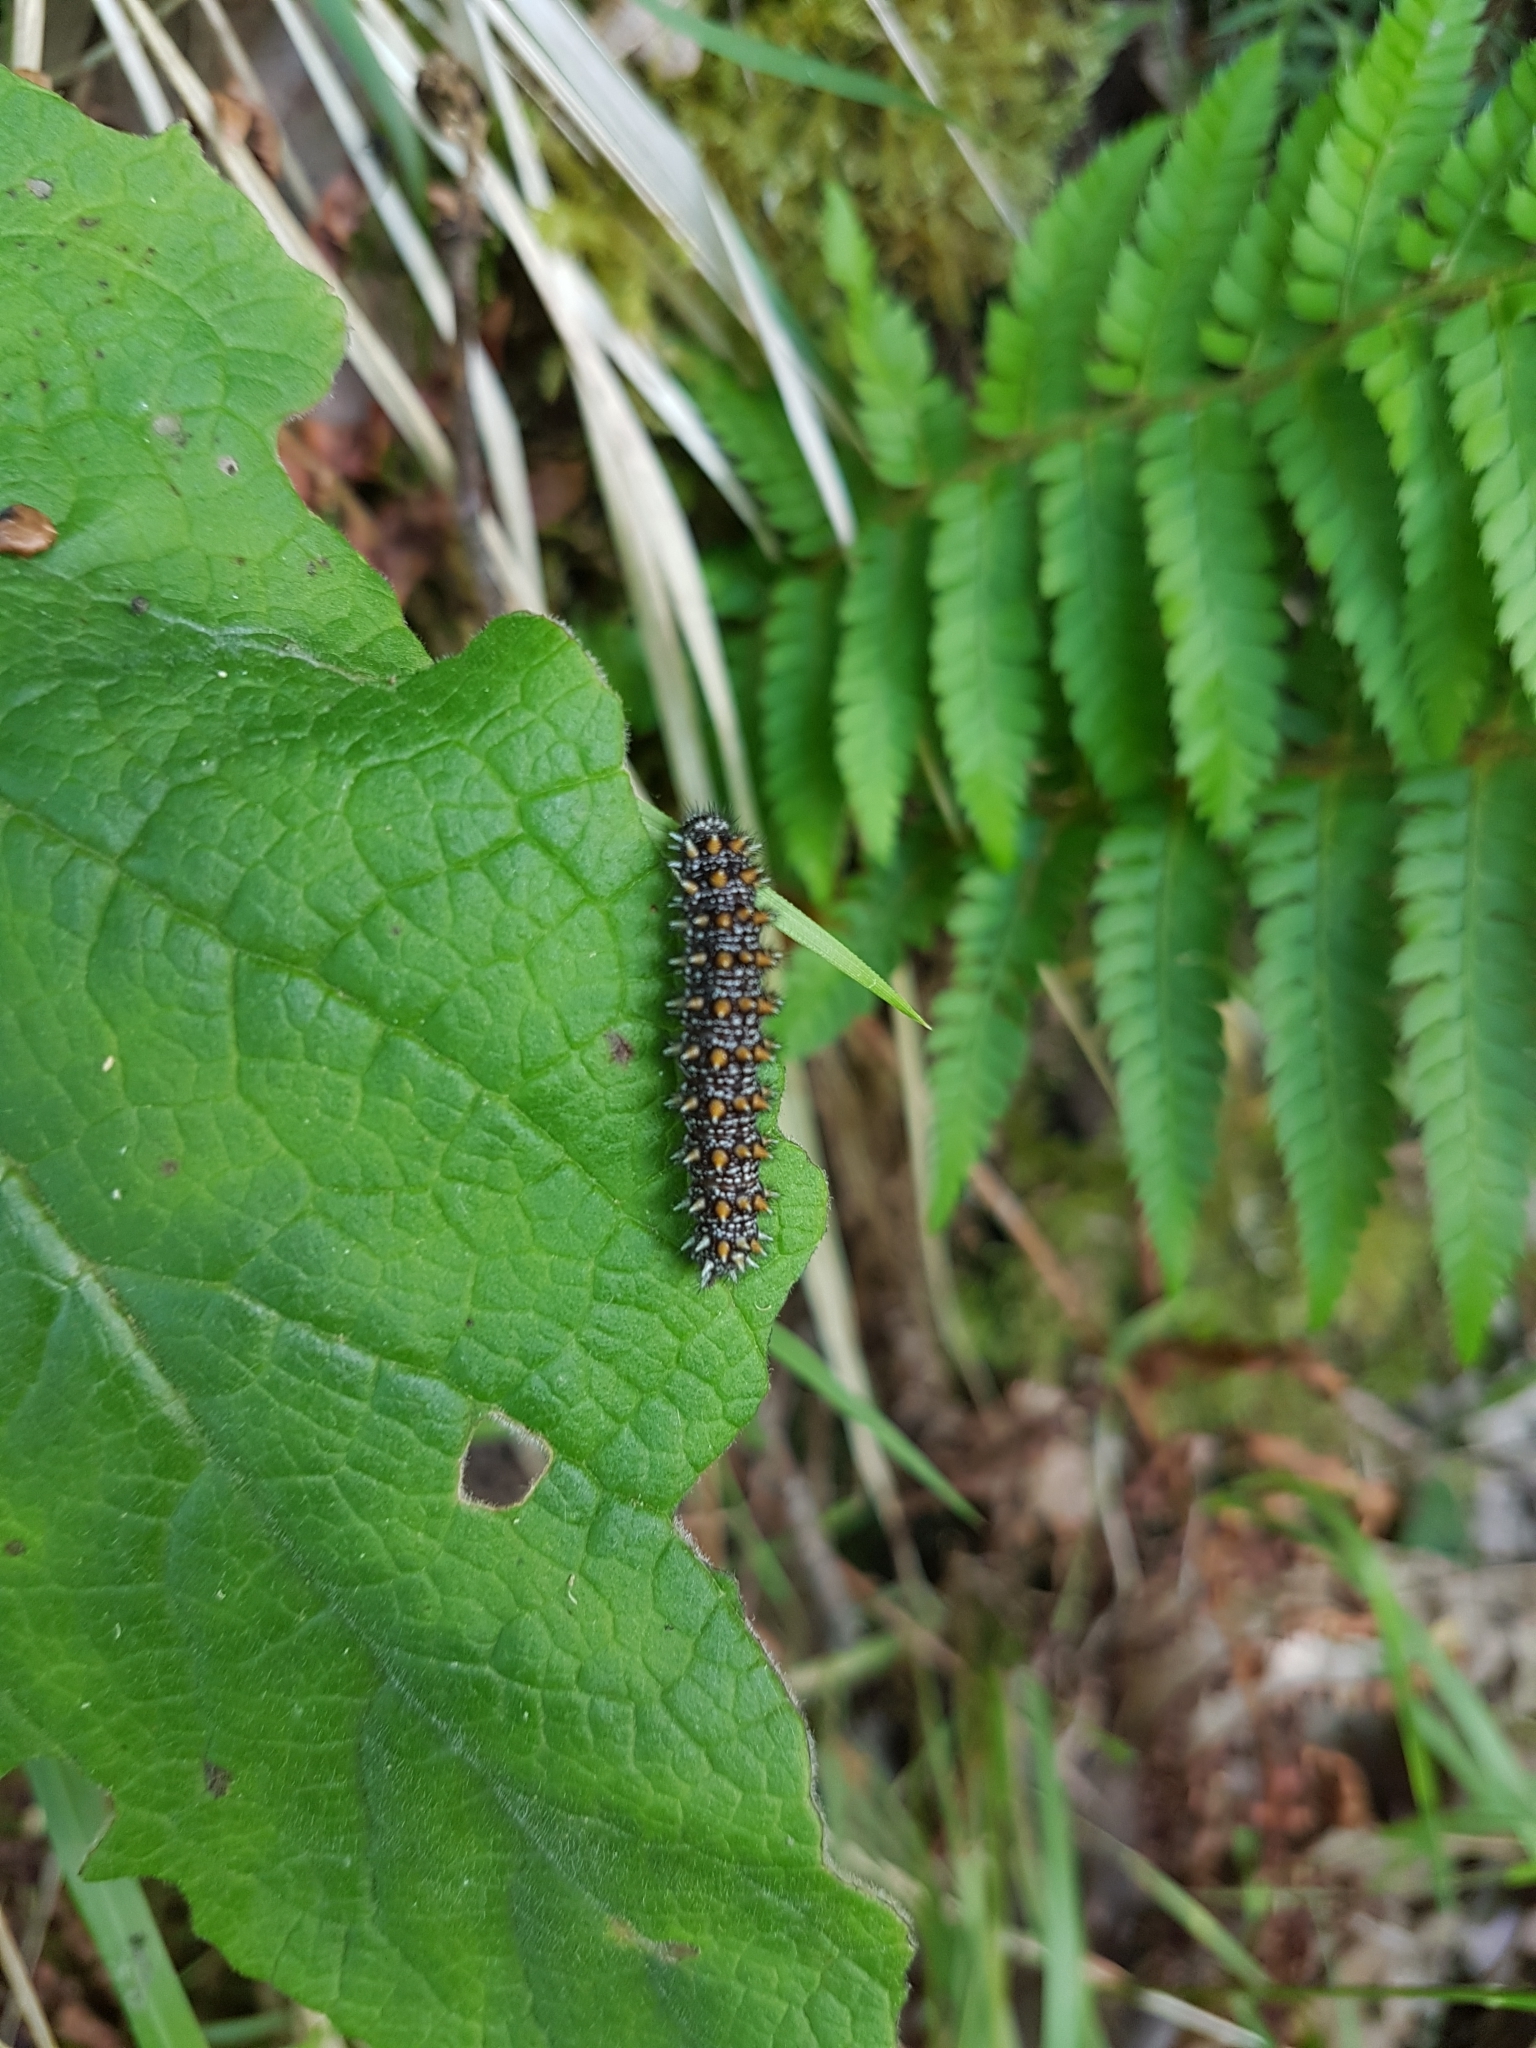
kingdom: Animalia
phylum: Arthropoda
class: Insecta
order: Lepidoptera
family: Nymphalidae
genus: Mellicta
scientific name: Mellicta athalia
